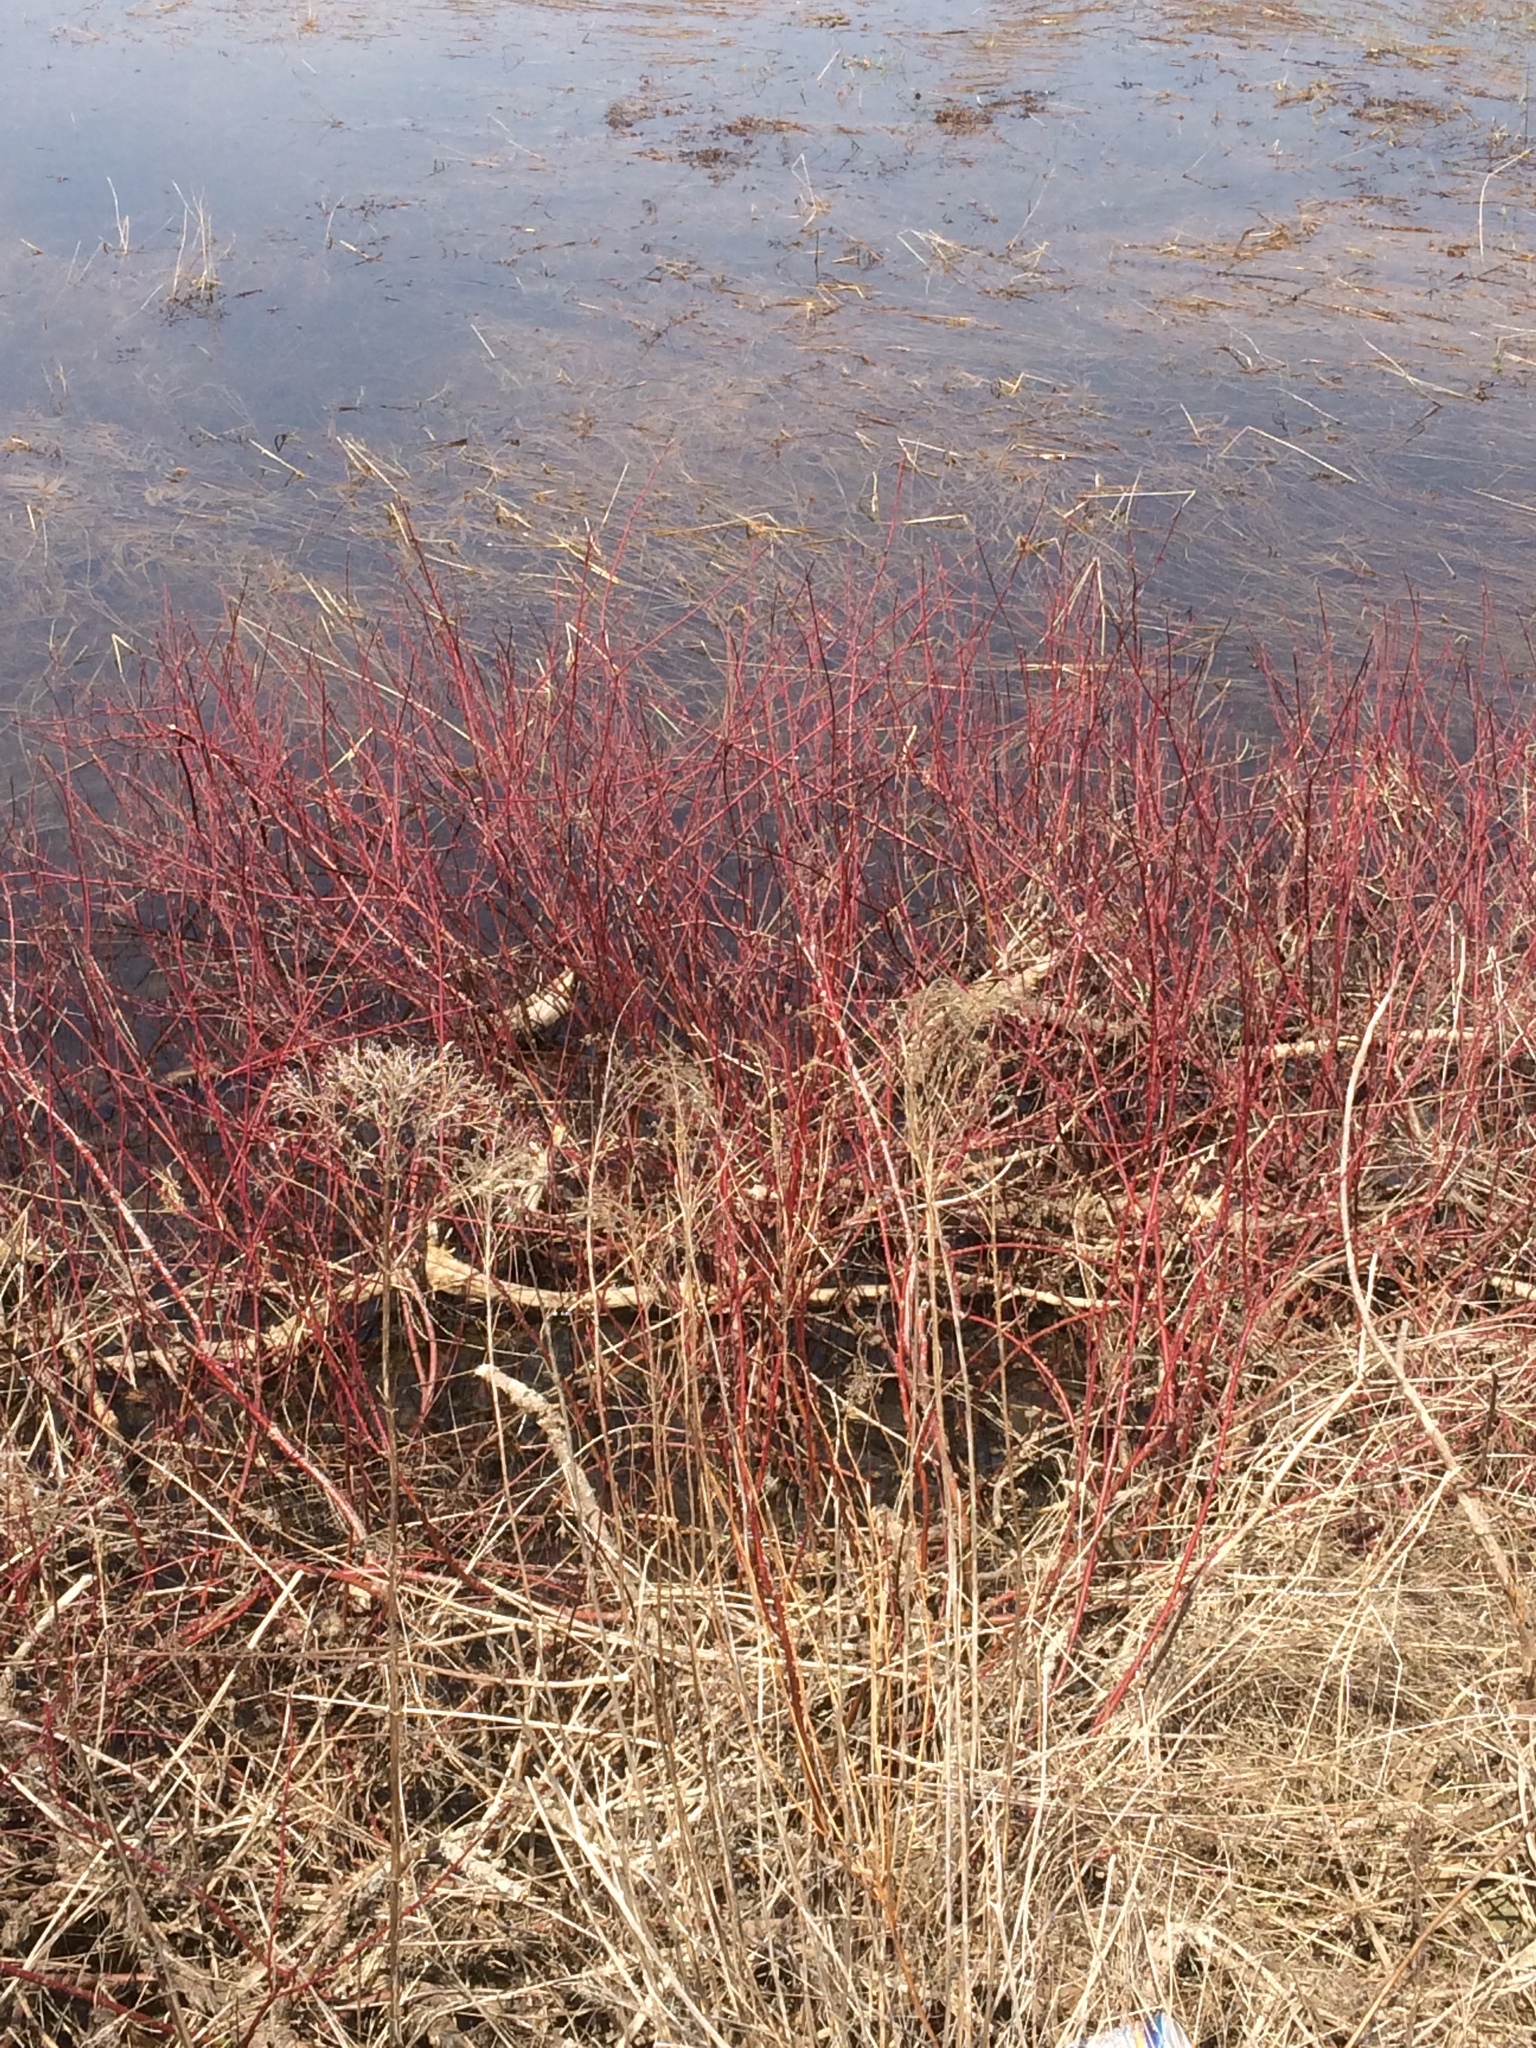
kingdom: Plantae
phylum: Tracheophyta
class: Magnoliopsida
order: Cornales
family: Cornaceae
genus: Cornus
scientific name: Cornus sericea
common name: Red-osier dogwood
